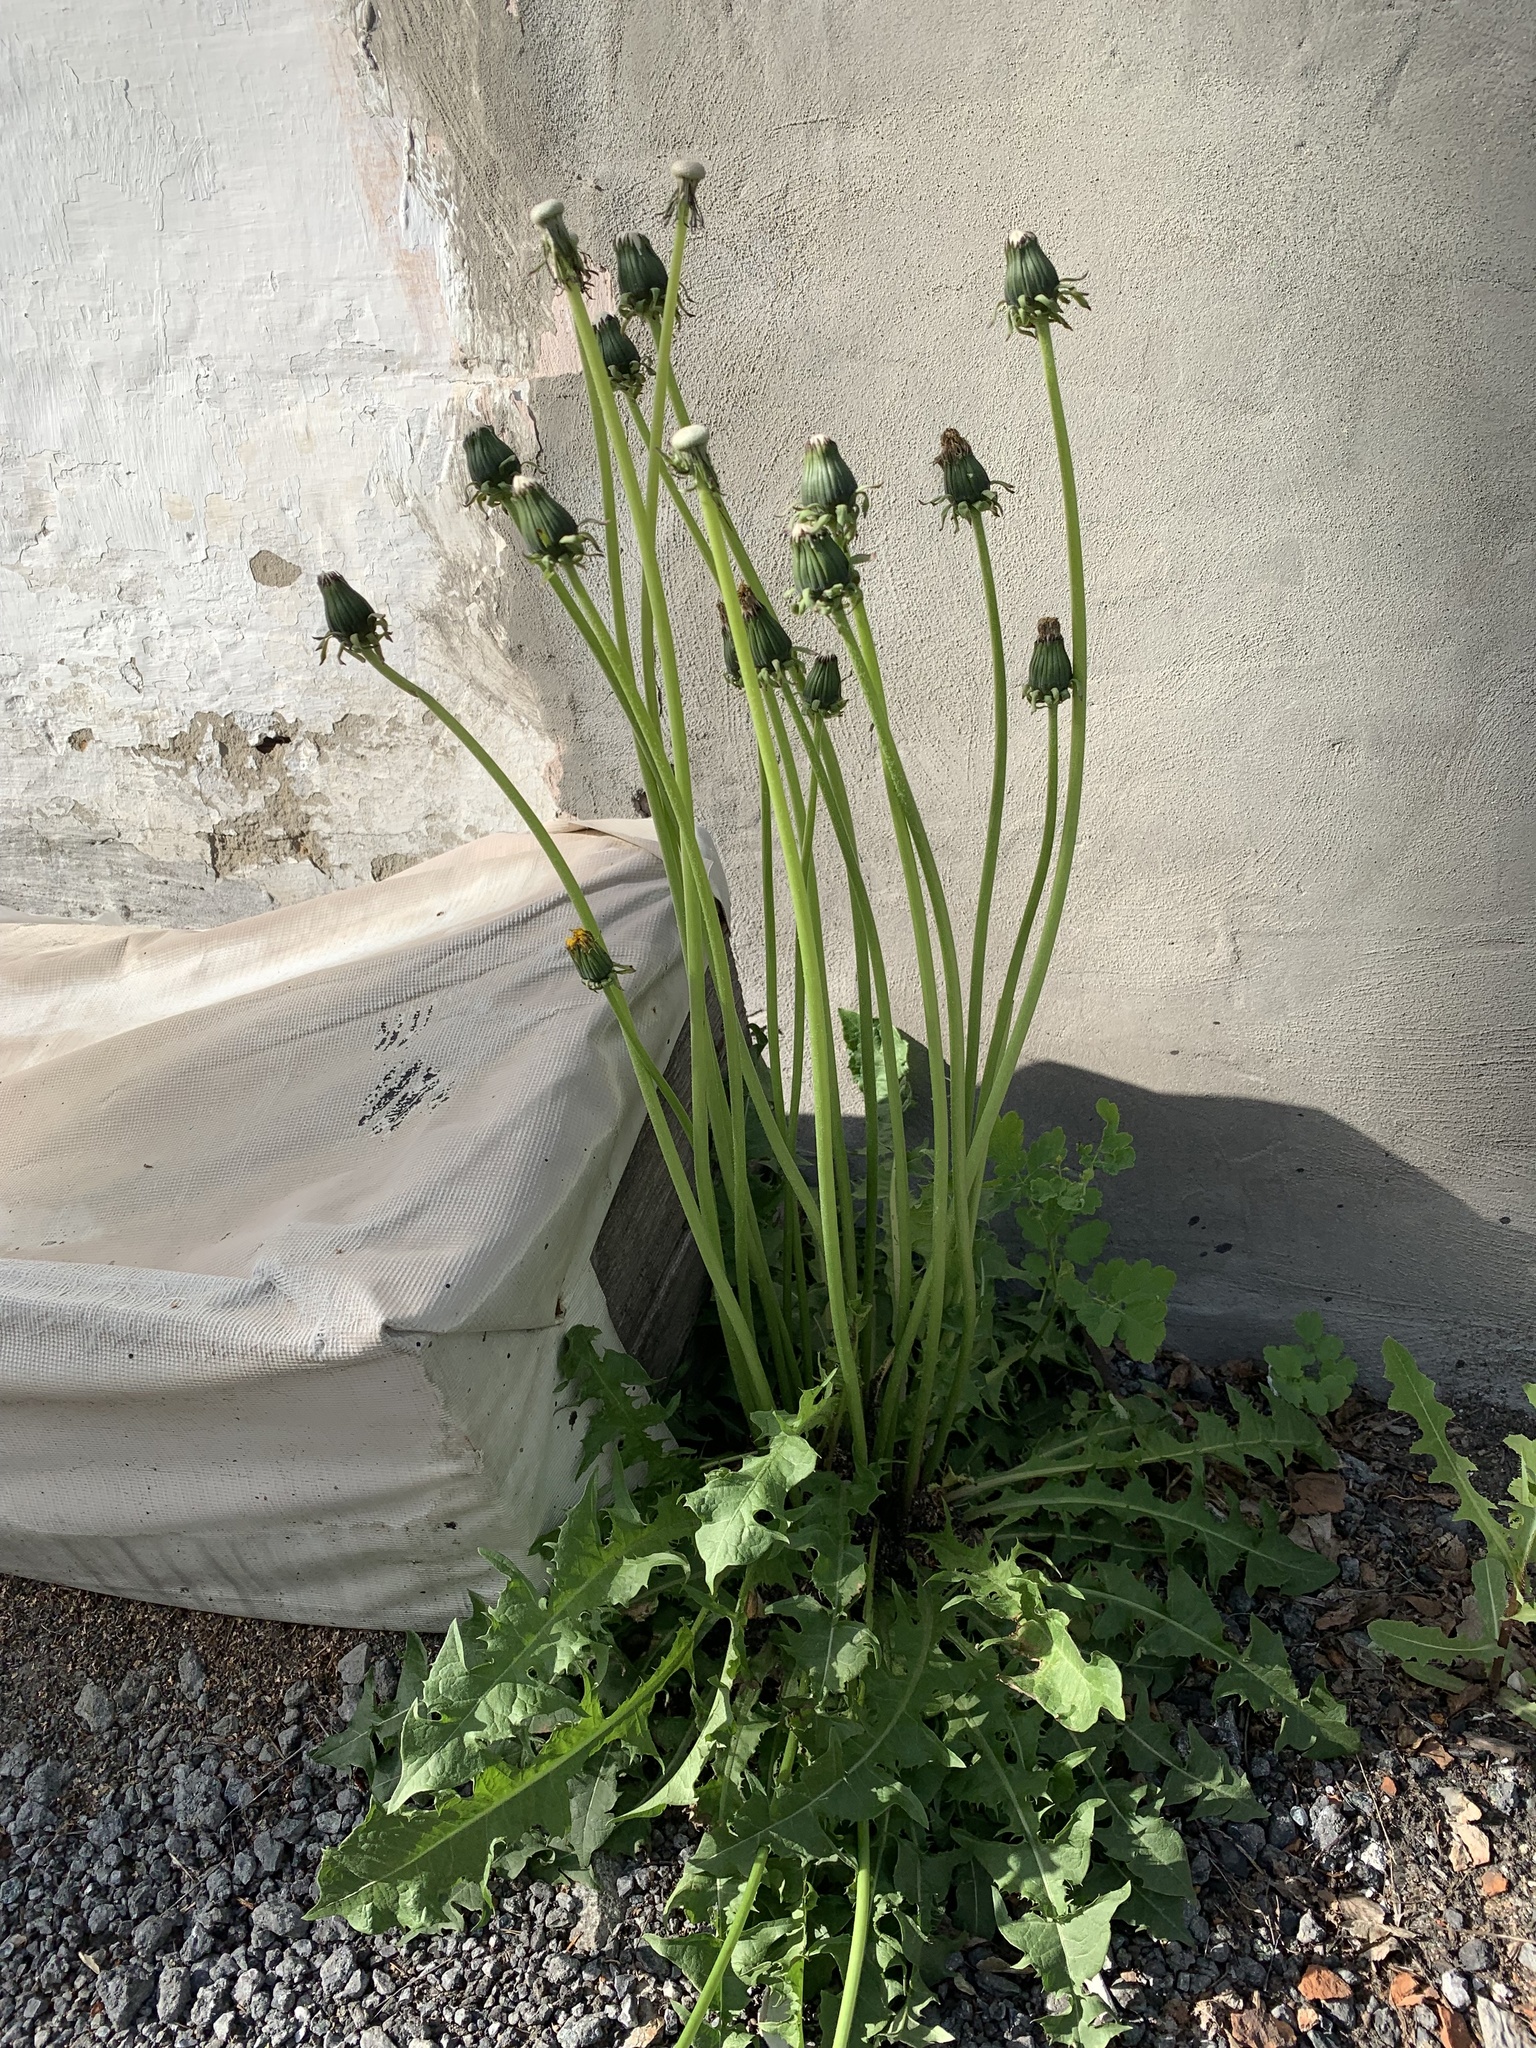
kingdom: Plantae
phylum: Tracheophyta
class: Magnoliopsida
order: Asterales
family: Asteraceae
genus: Taraxacum
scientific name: Taraxacum officinale
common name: Common dandelion
